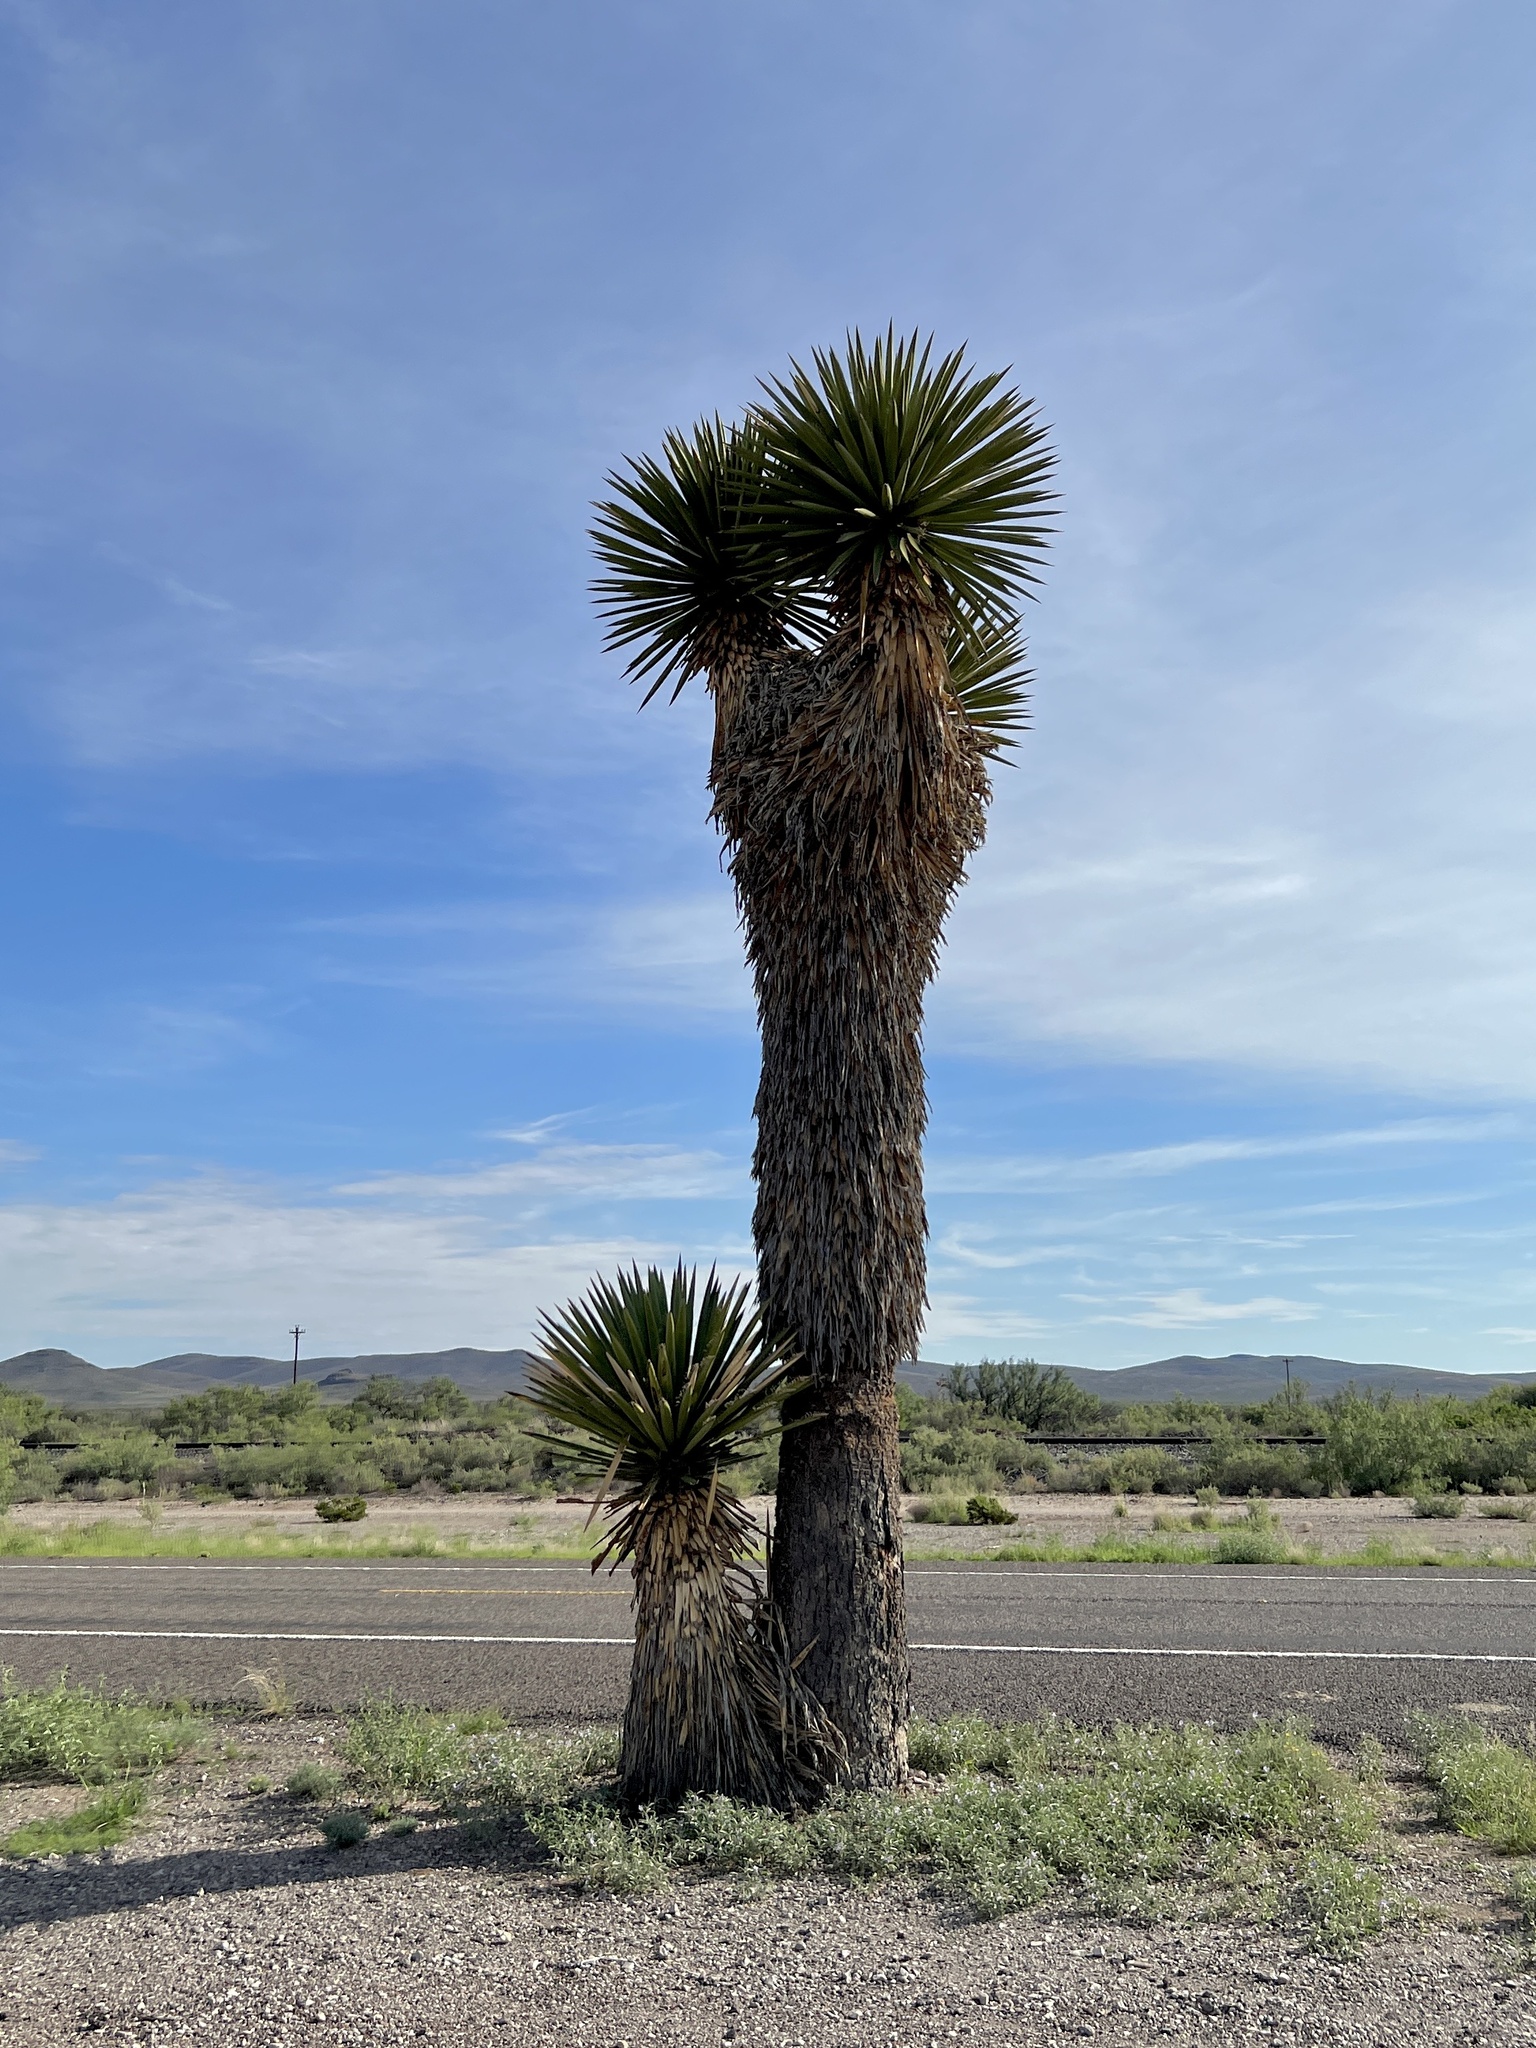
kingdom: Plantae
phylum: Tracheophyta
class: Liliopsida
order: Asparagales
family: Asparagaceae
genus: Yucca
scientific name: Yucca faxoniana
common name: Spanish dagger
